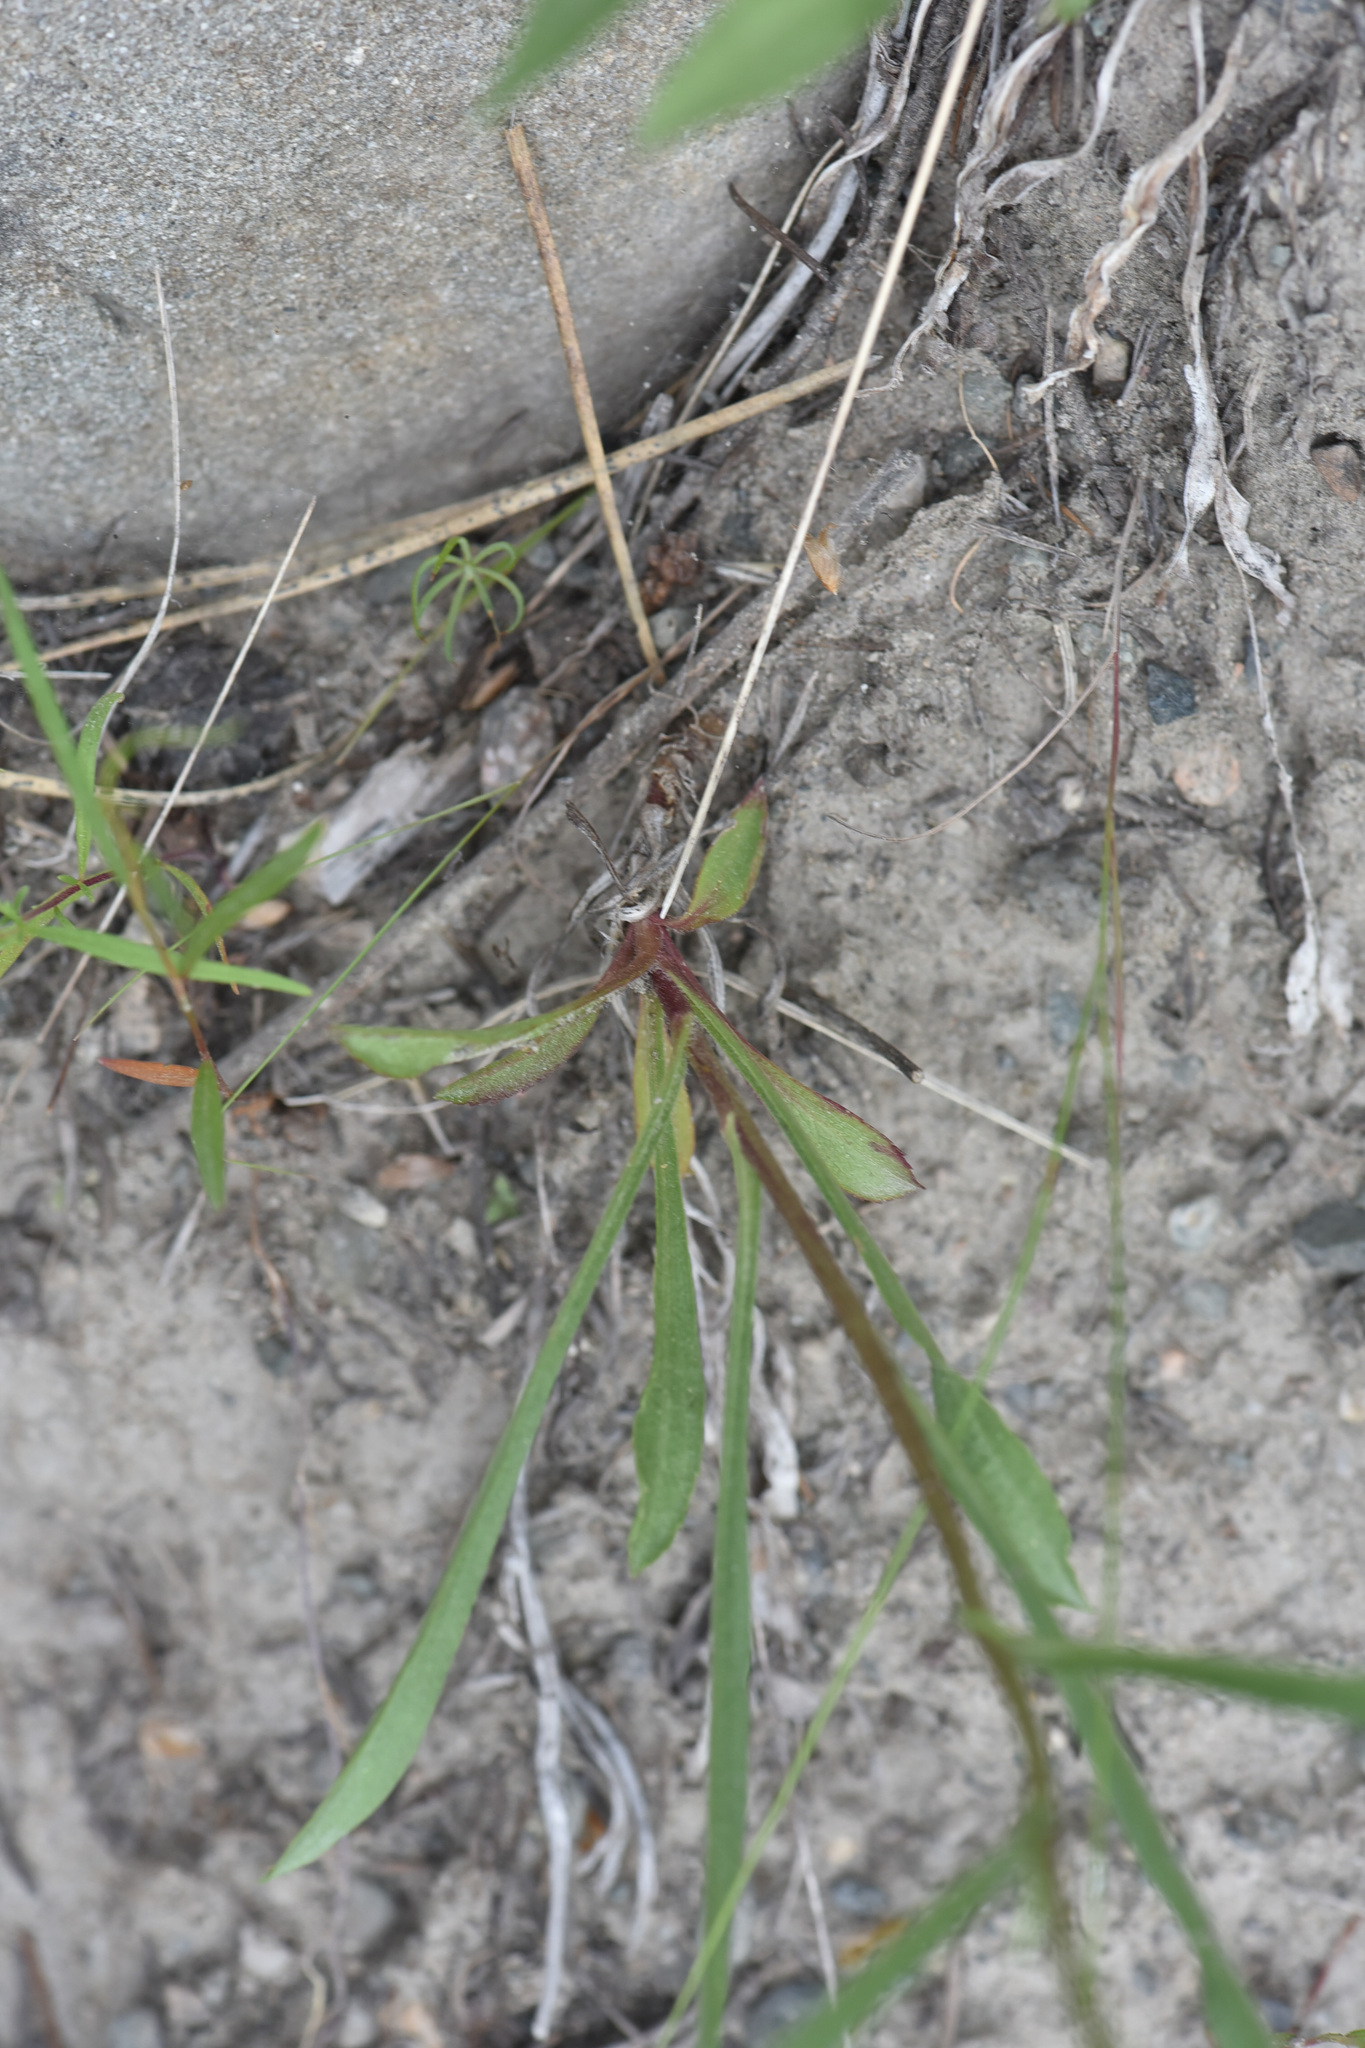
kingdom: Plantae
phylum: Tracheophyta
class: Magnoliopsida
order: Asterales
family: Asteraceae
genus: Erigeron
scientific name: Erigeron canadensis
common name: Canadian fleabane
